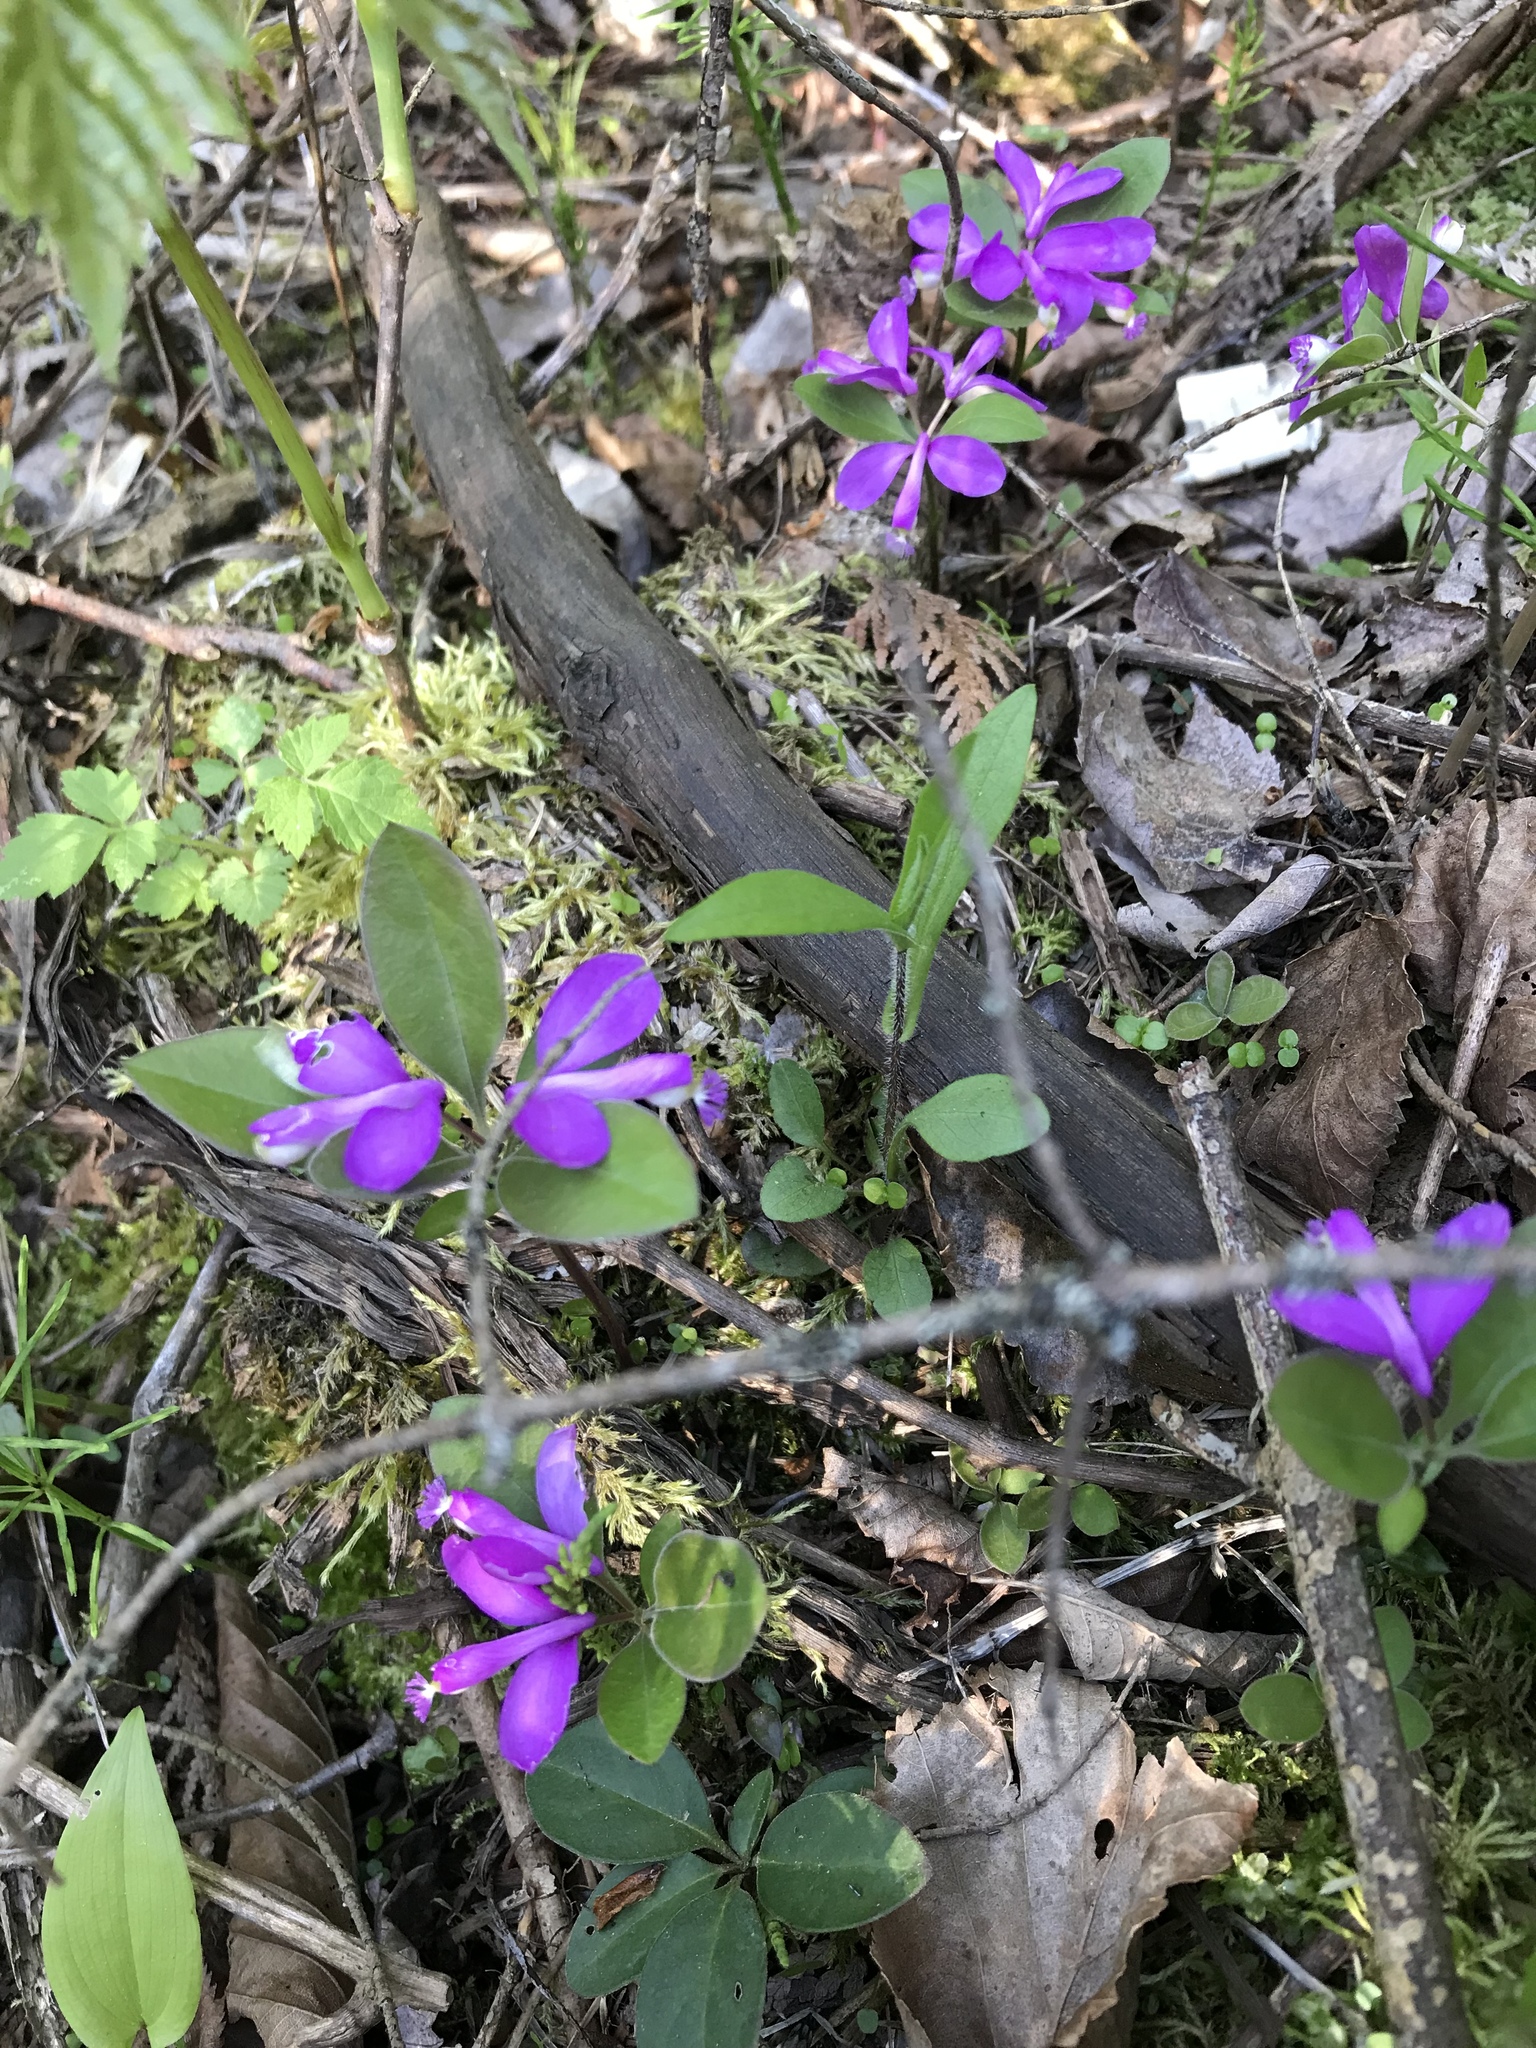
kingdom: Plantae
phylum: Tracheophyta
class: Magnoliopsida
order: Fabales
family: Polygalaceae
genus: Polygaloides
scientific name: Polygaloides paucifolia
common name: Bird-on-the-wing
